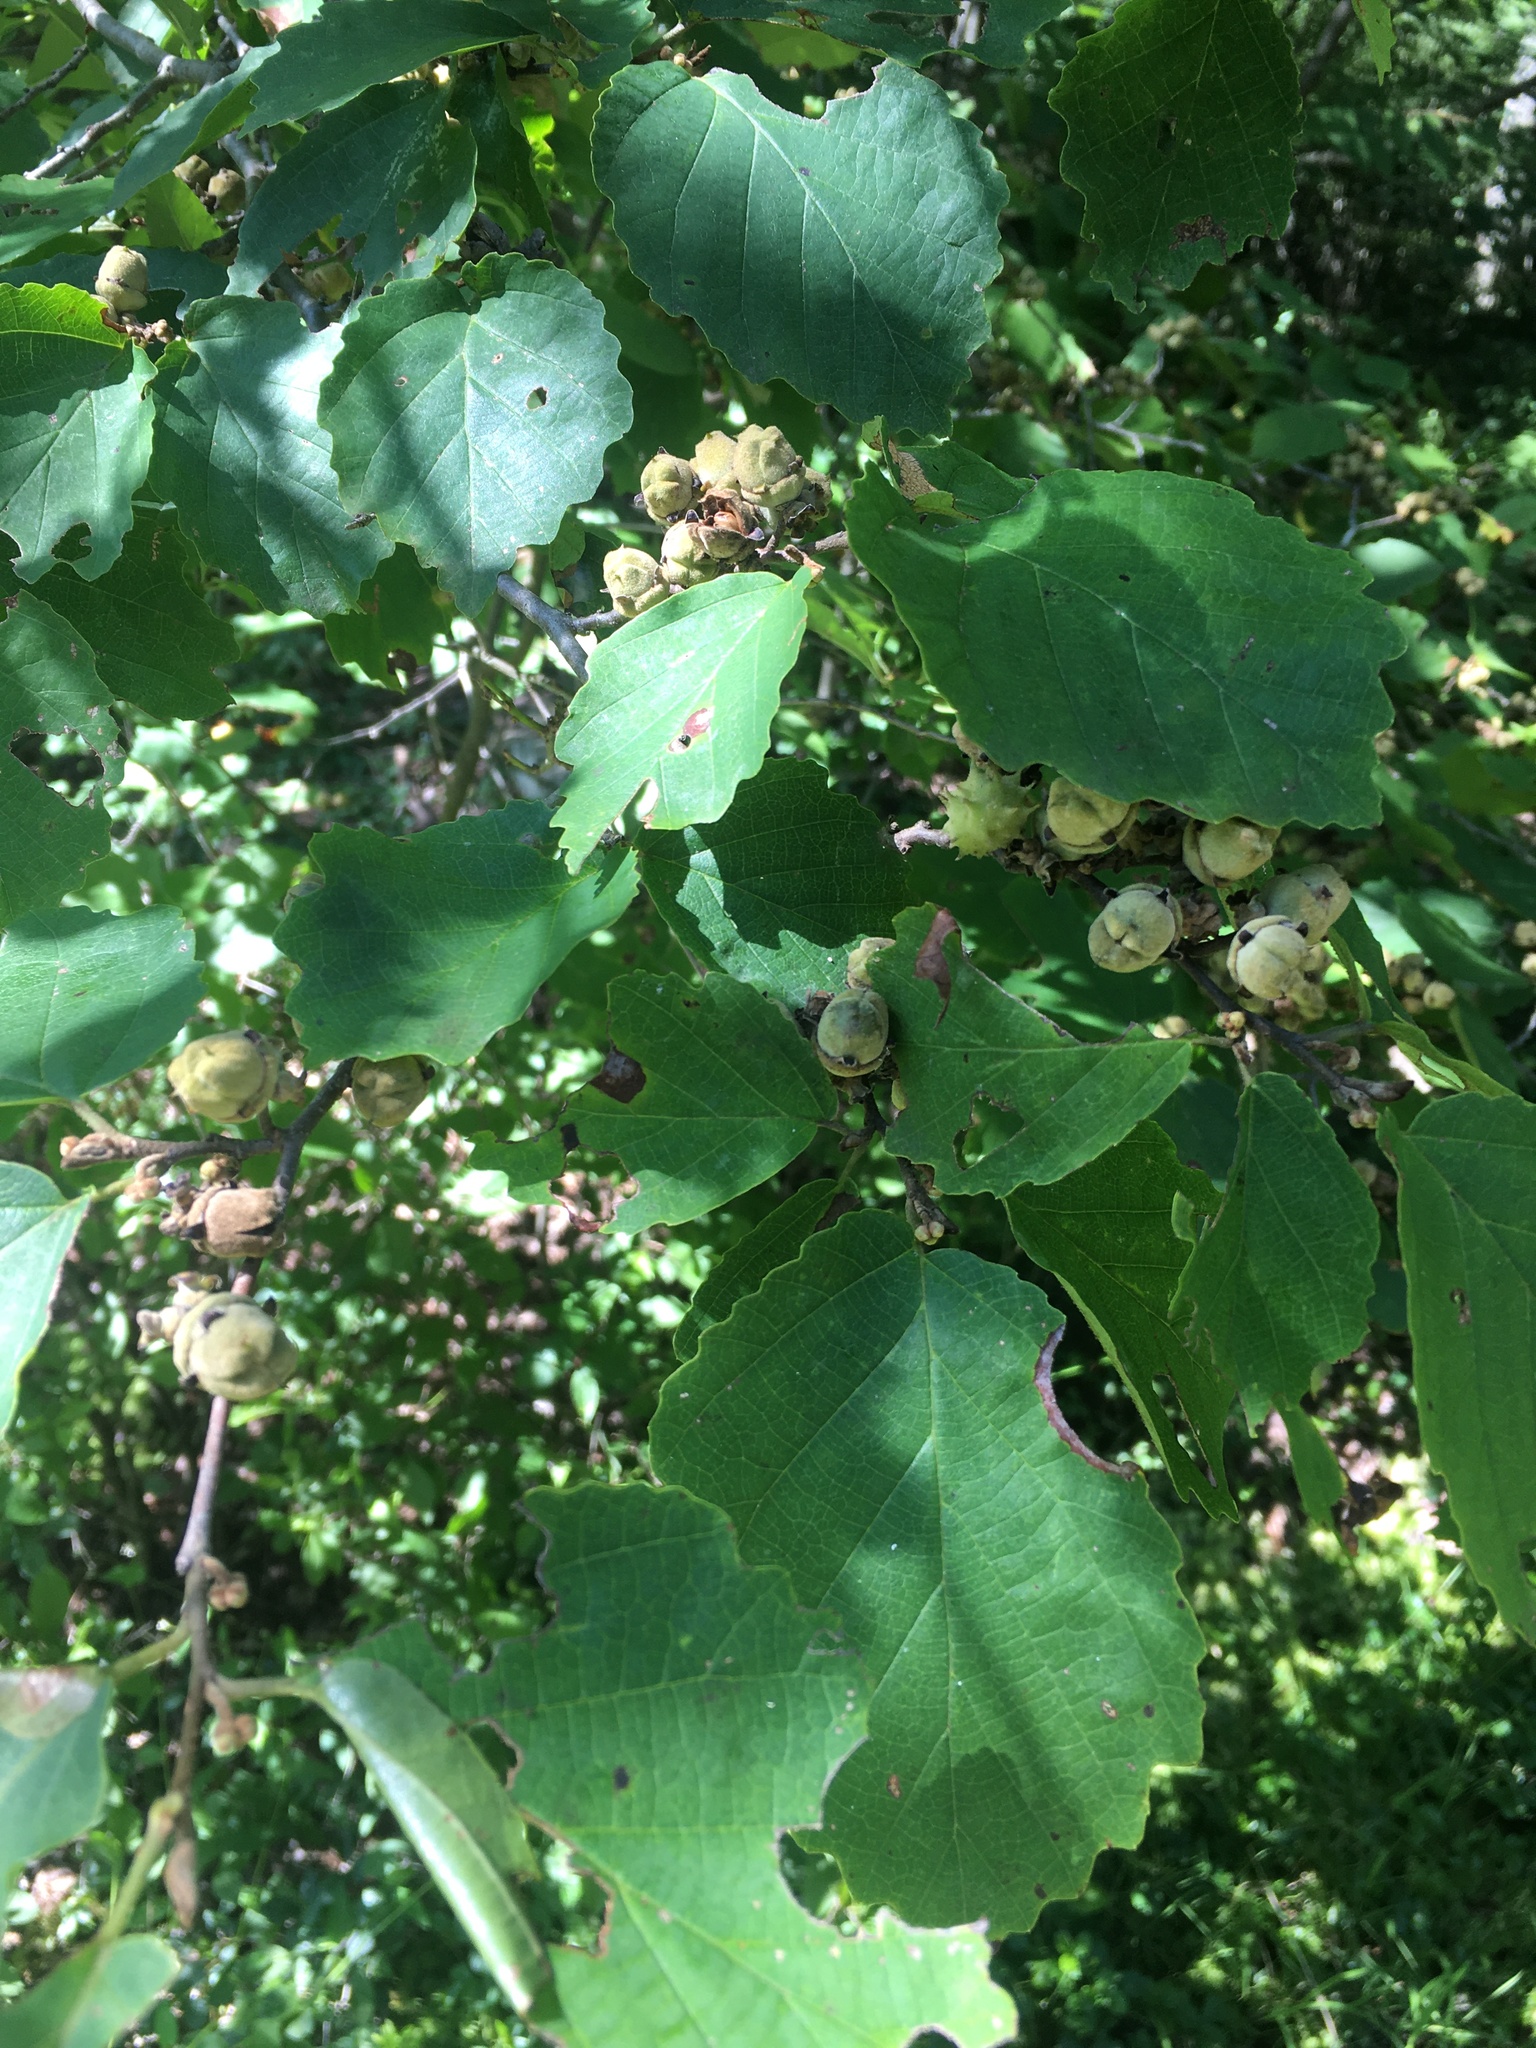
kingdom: Plantae
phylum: Tracheophyta
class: Magnoliopsida
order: Saxifragales
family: Hamamelidaceae
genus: Hamamelis
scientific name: Hamamelis virginiana
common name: Witch-hazel
